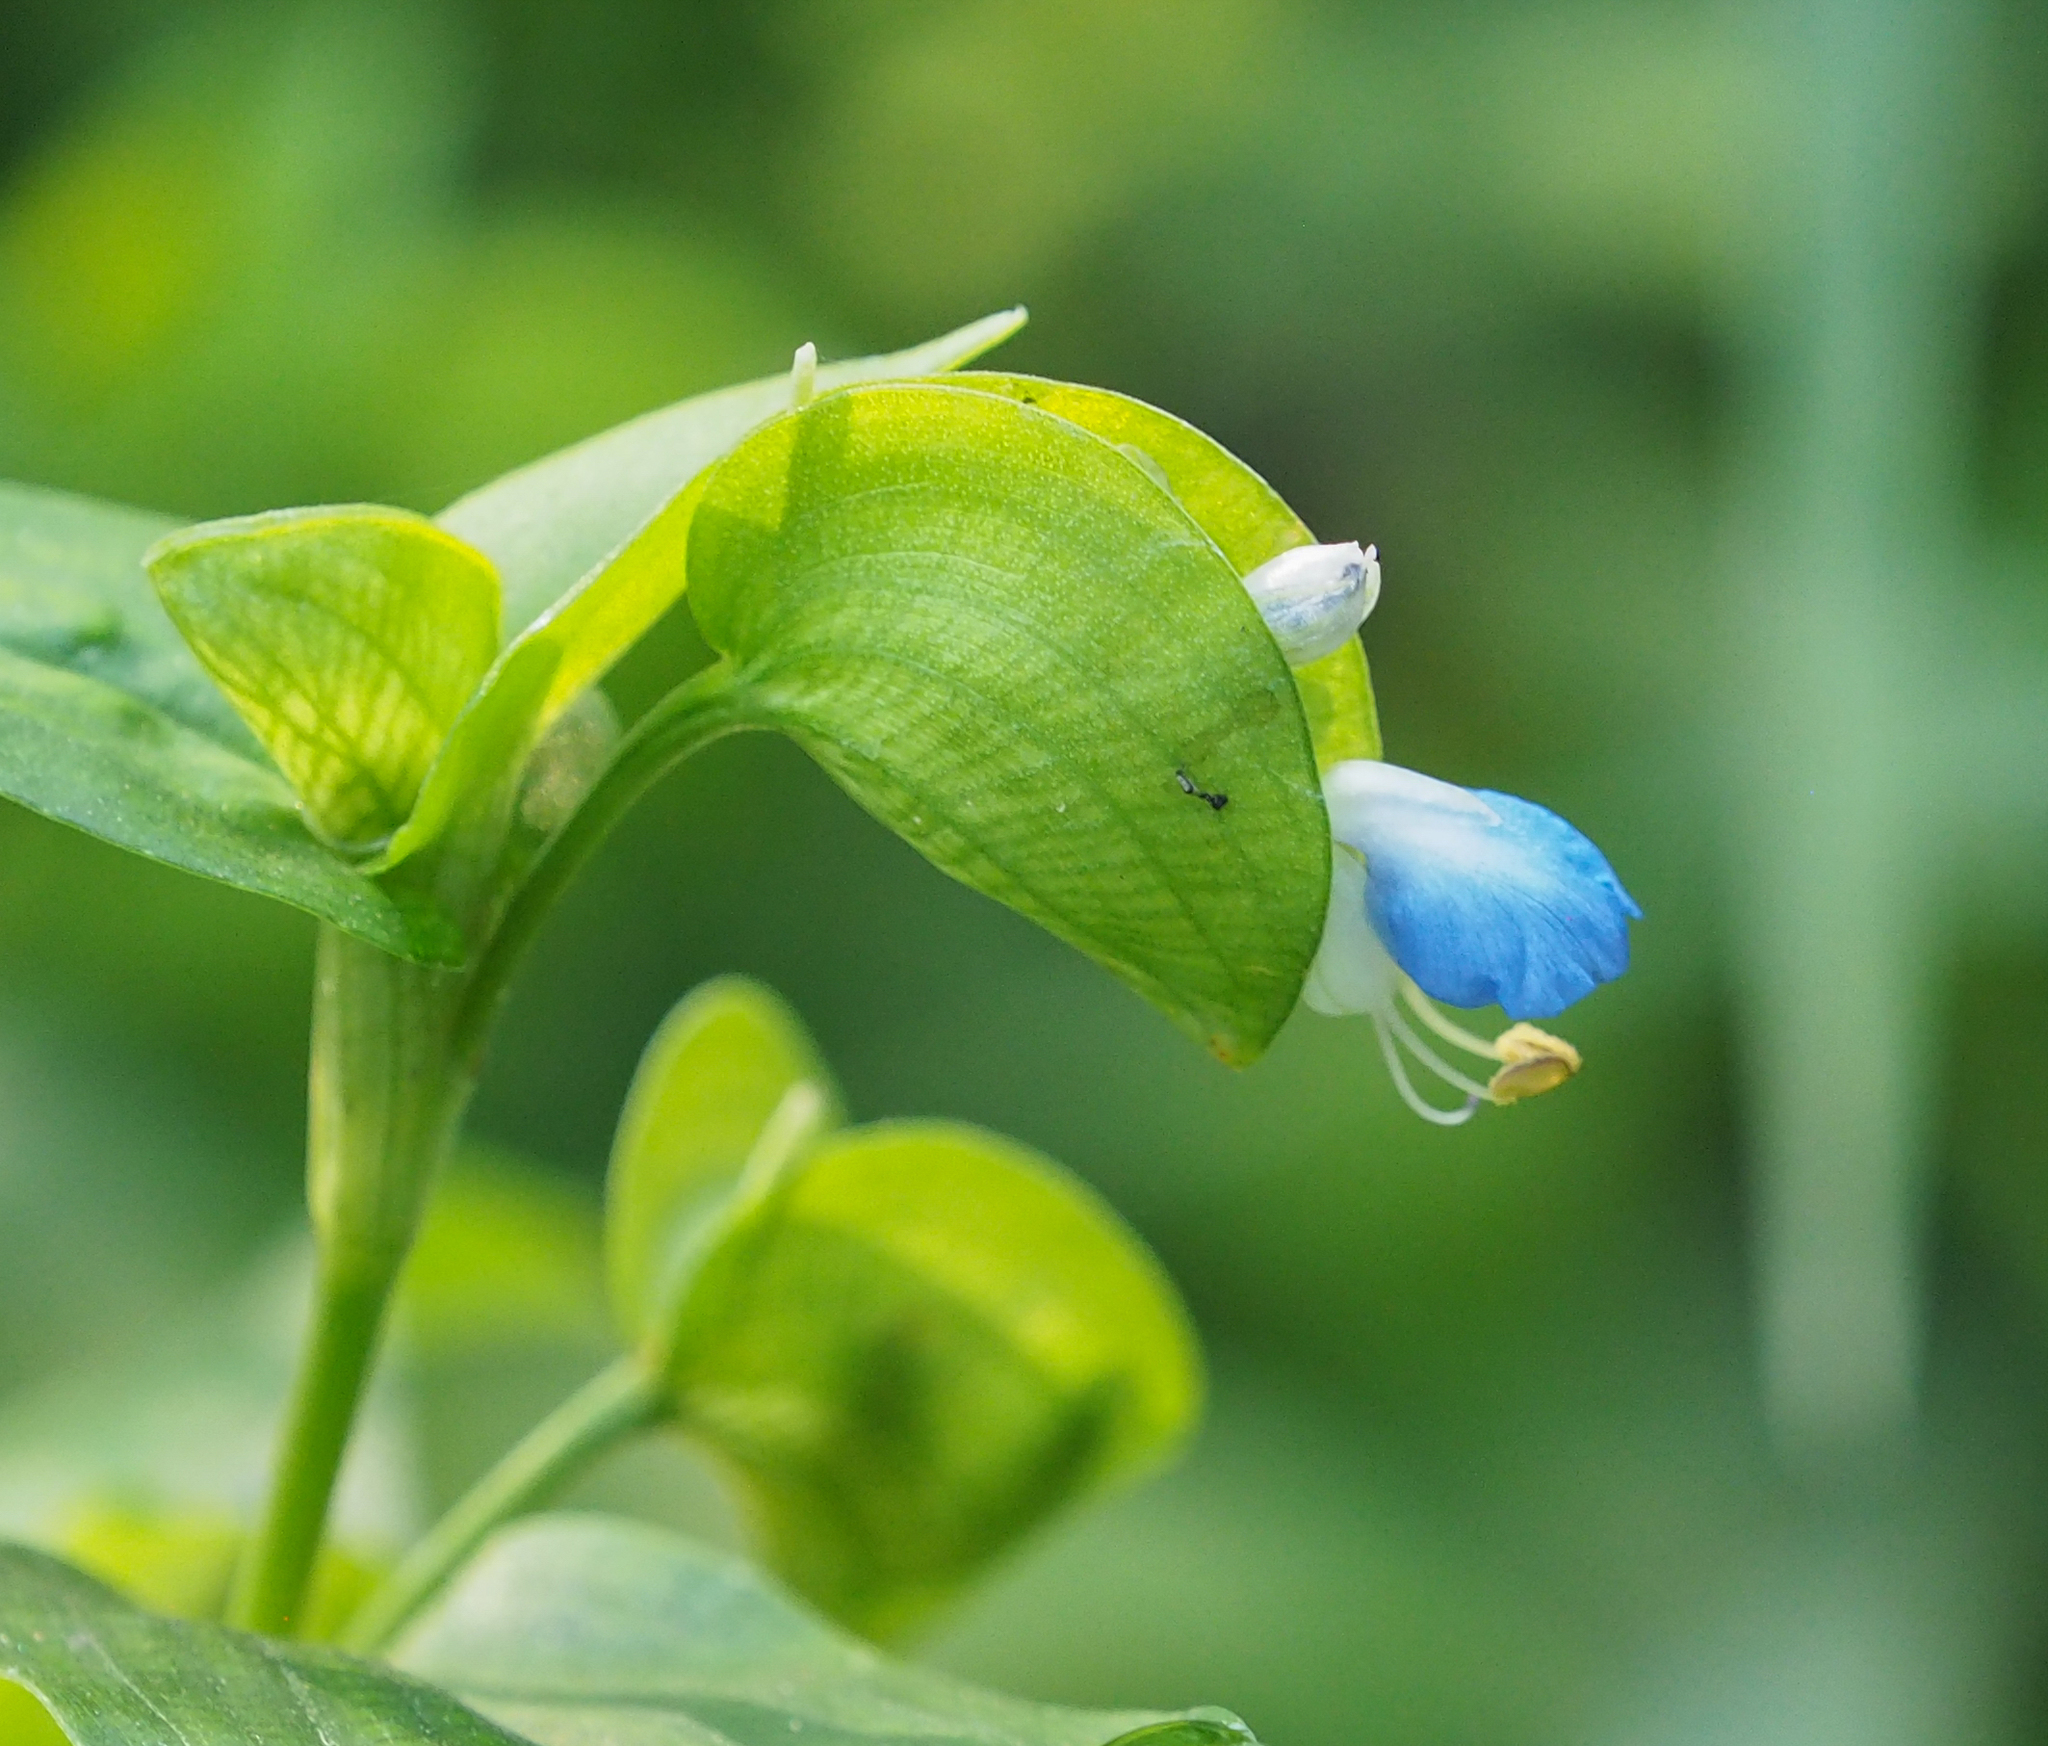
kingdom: Plantae
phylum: Tracheophyta
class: Liliopsida
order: Commelinales
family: Commelinaceae
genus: Commelina
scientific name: Commelina communis
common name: Asiatic dayflower
